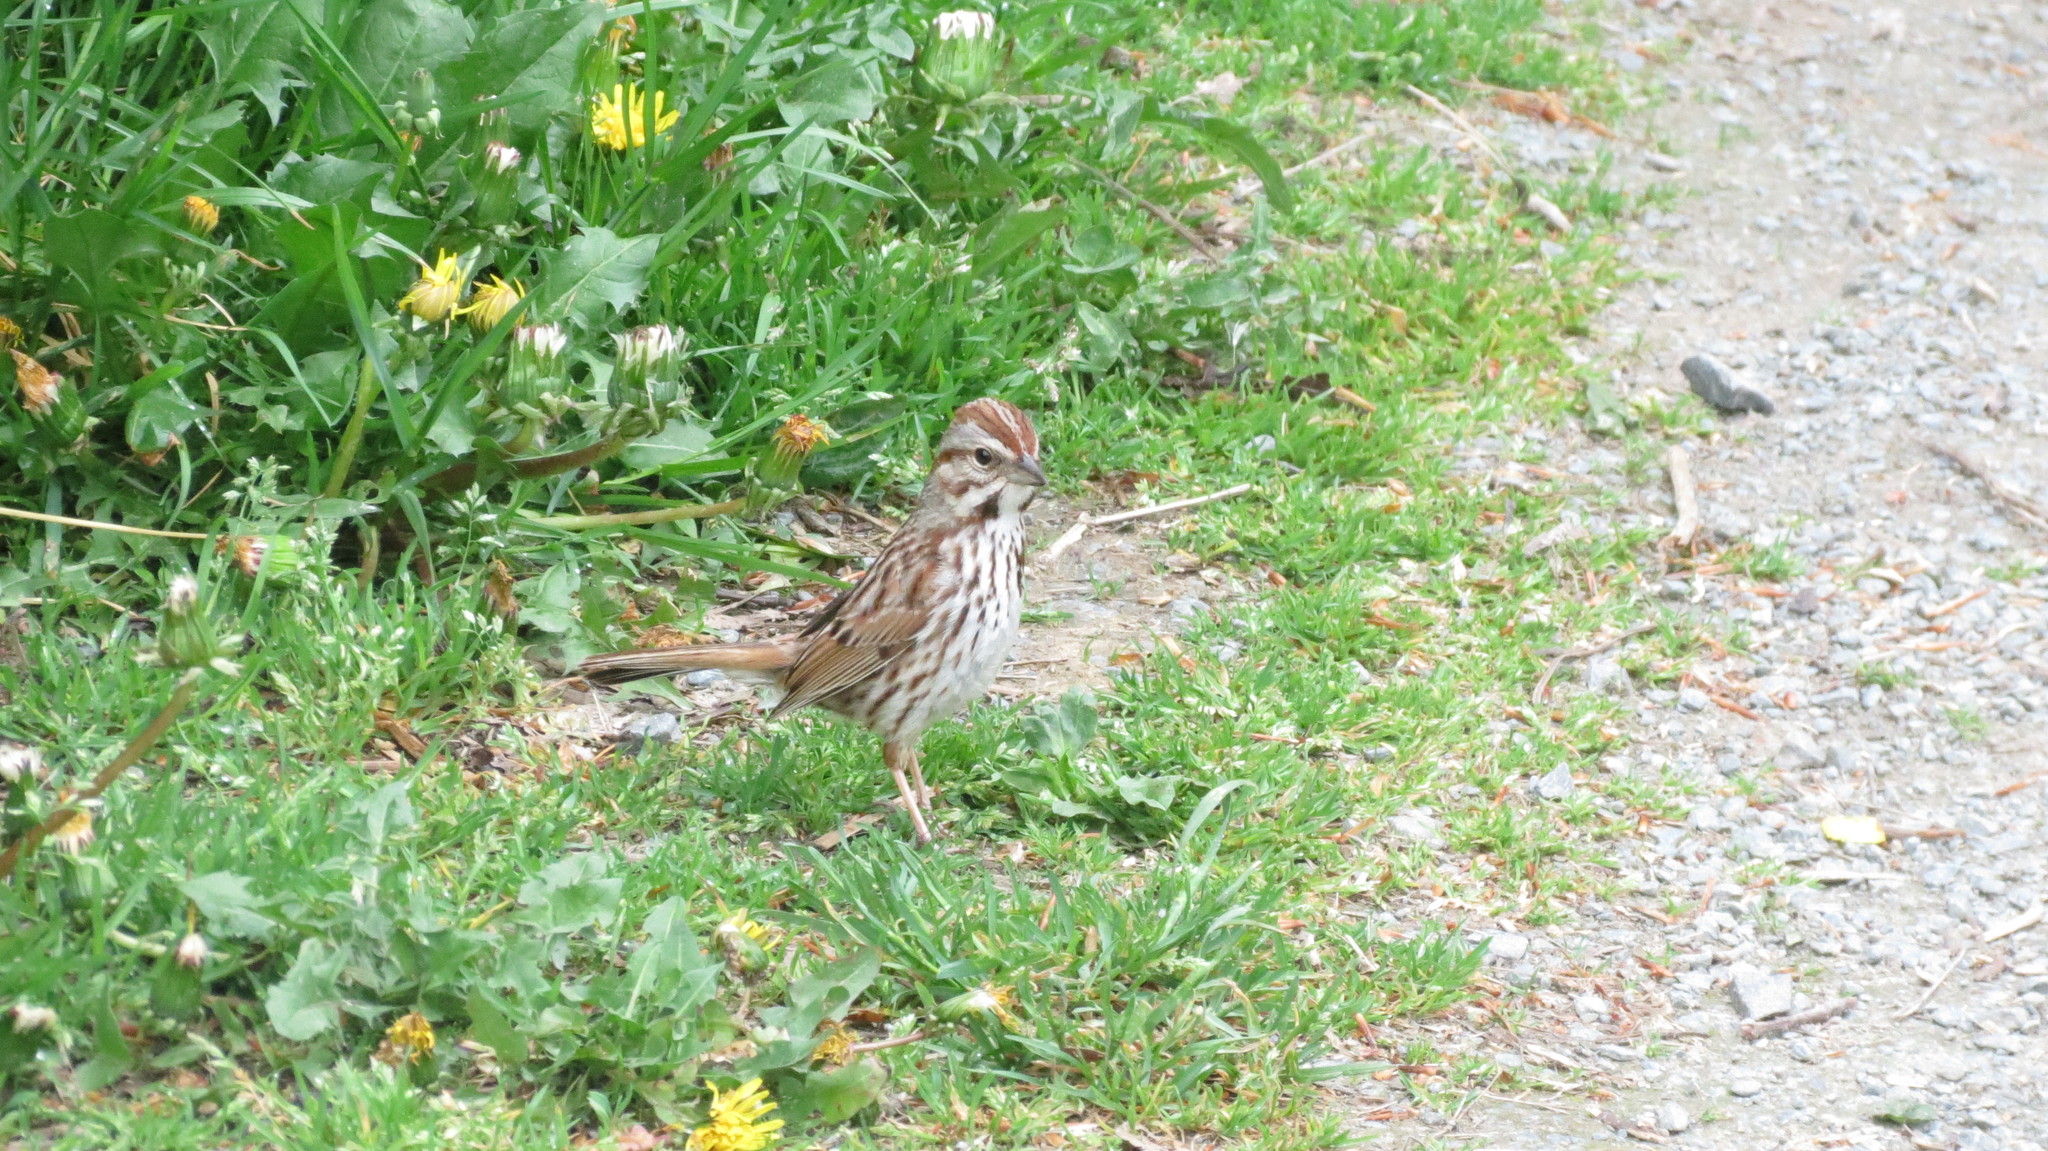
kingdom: Animalia
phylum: Chordata
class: Aves
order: Passeriformes
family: Passerellidae
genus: Melospiza
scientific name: Melospiza melodia
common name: Song sparrow
